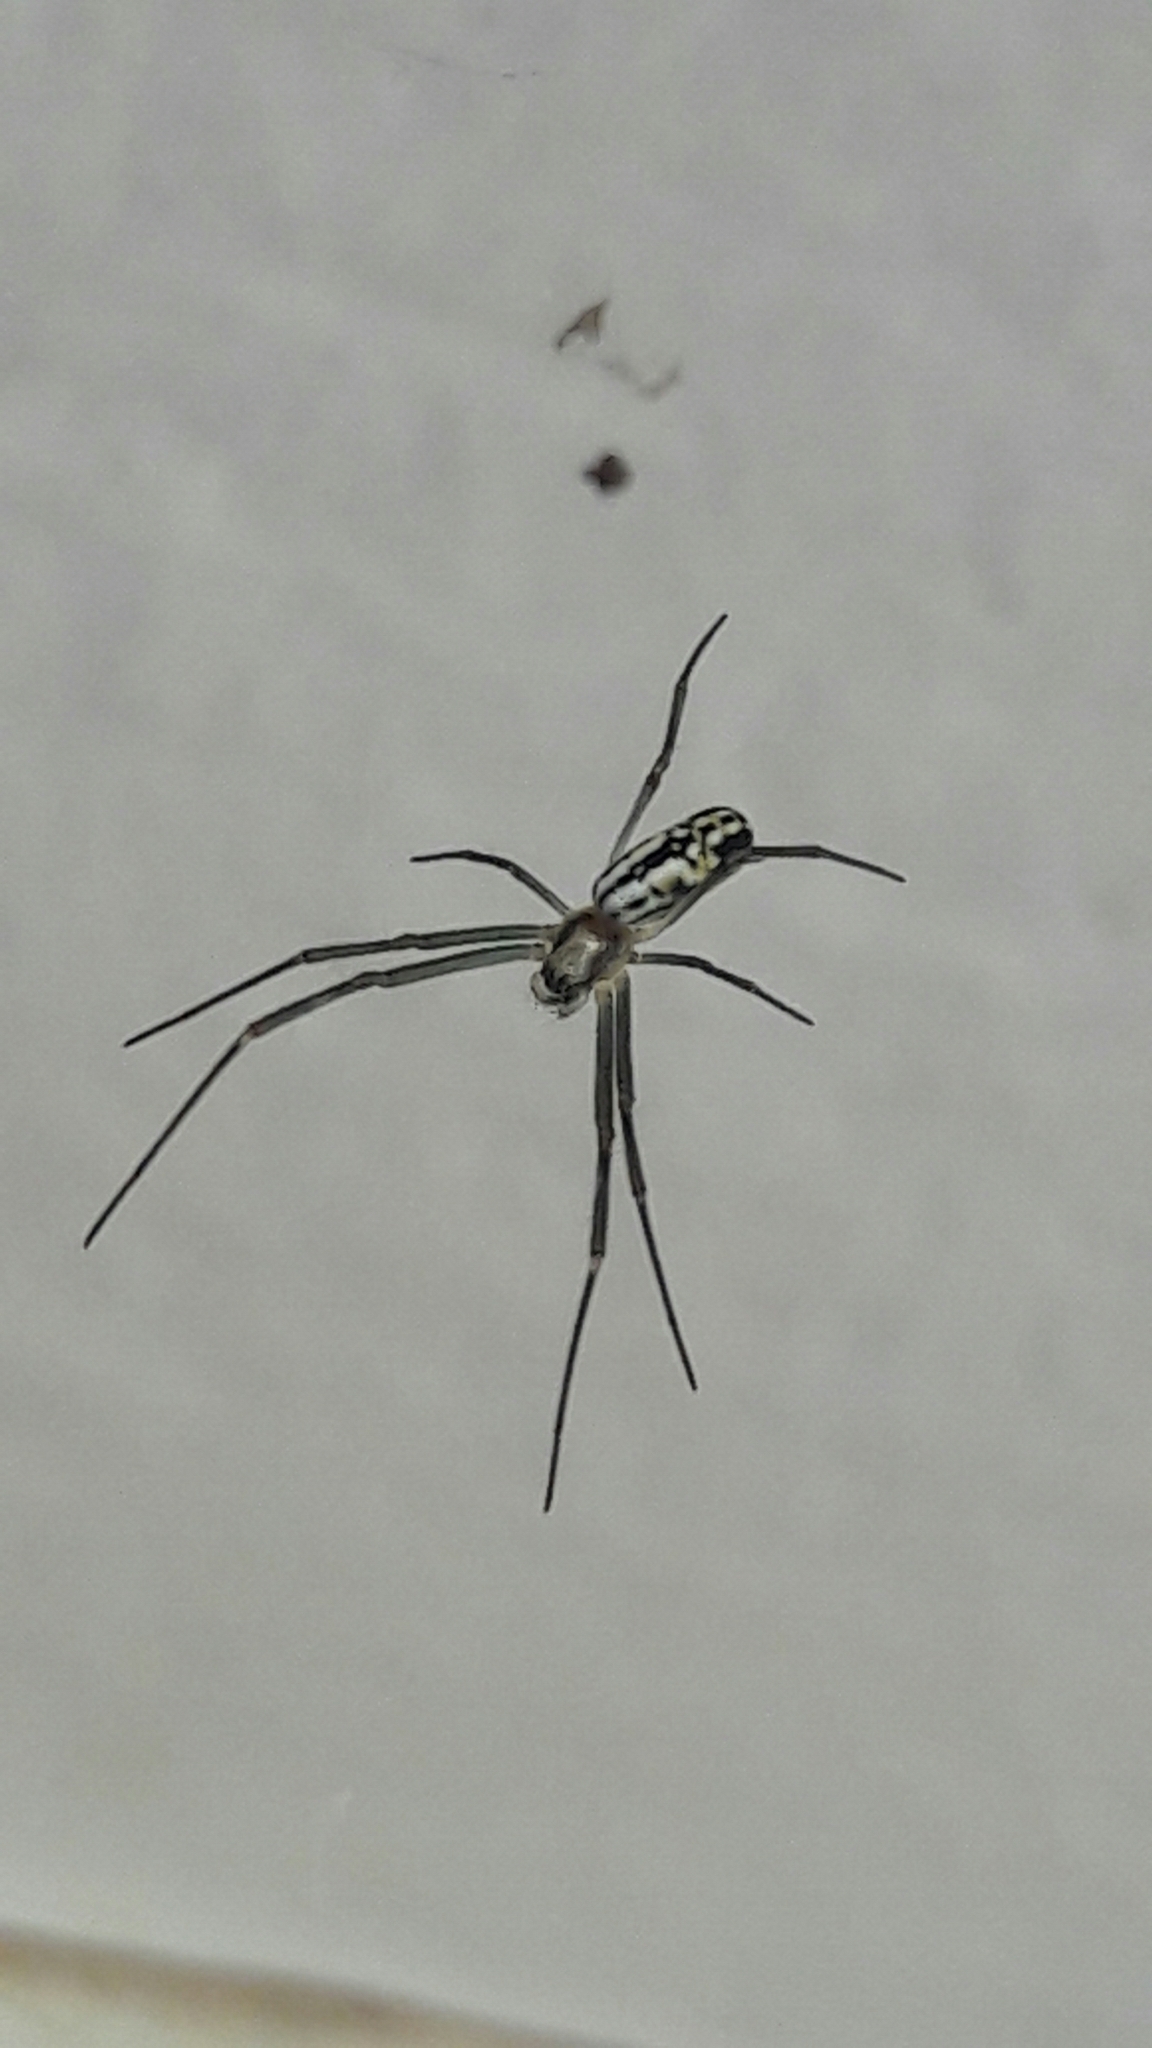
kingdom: Animalia
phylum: Arthropoda
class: Arachnida
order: Araneae
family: Araneidae
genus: Trichonephila
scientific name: Trichonephila clavipes
